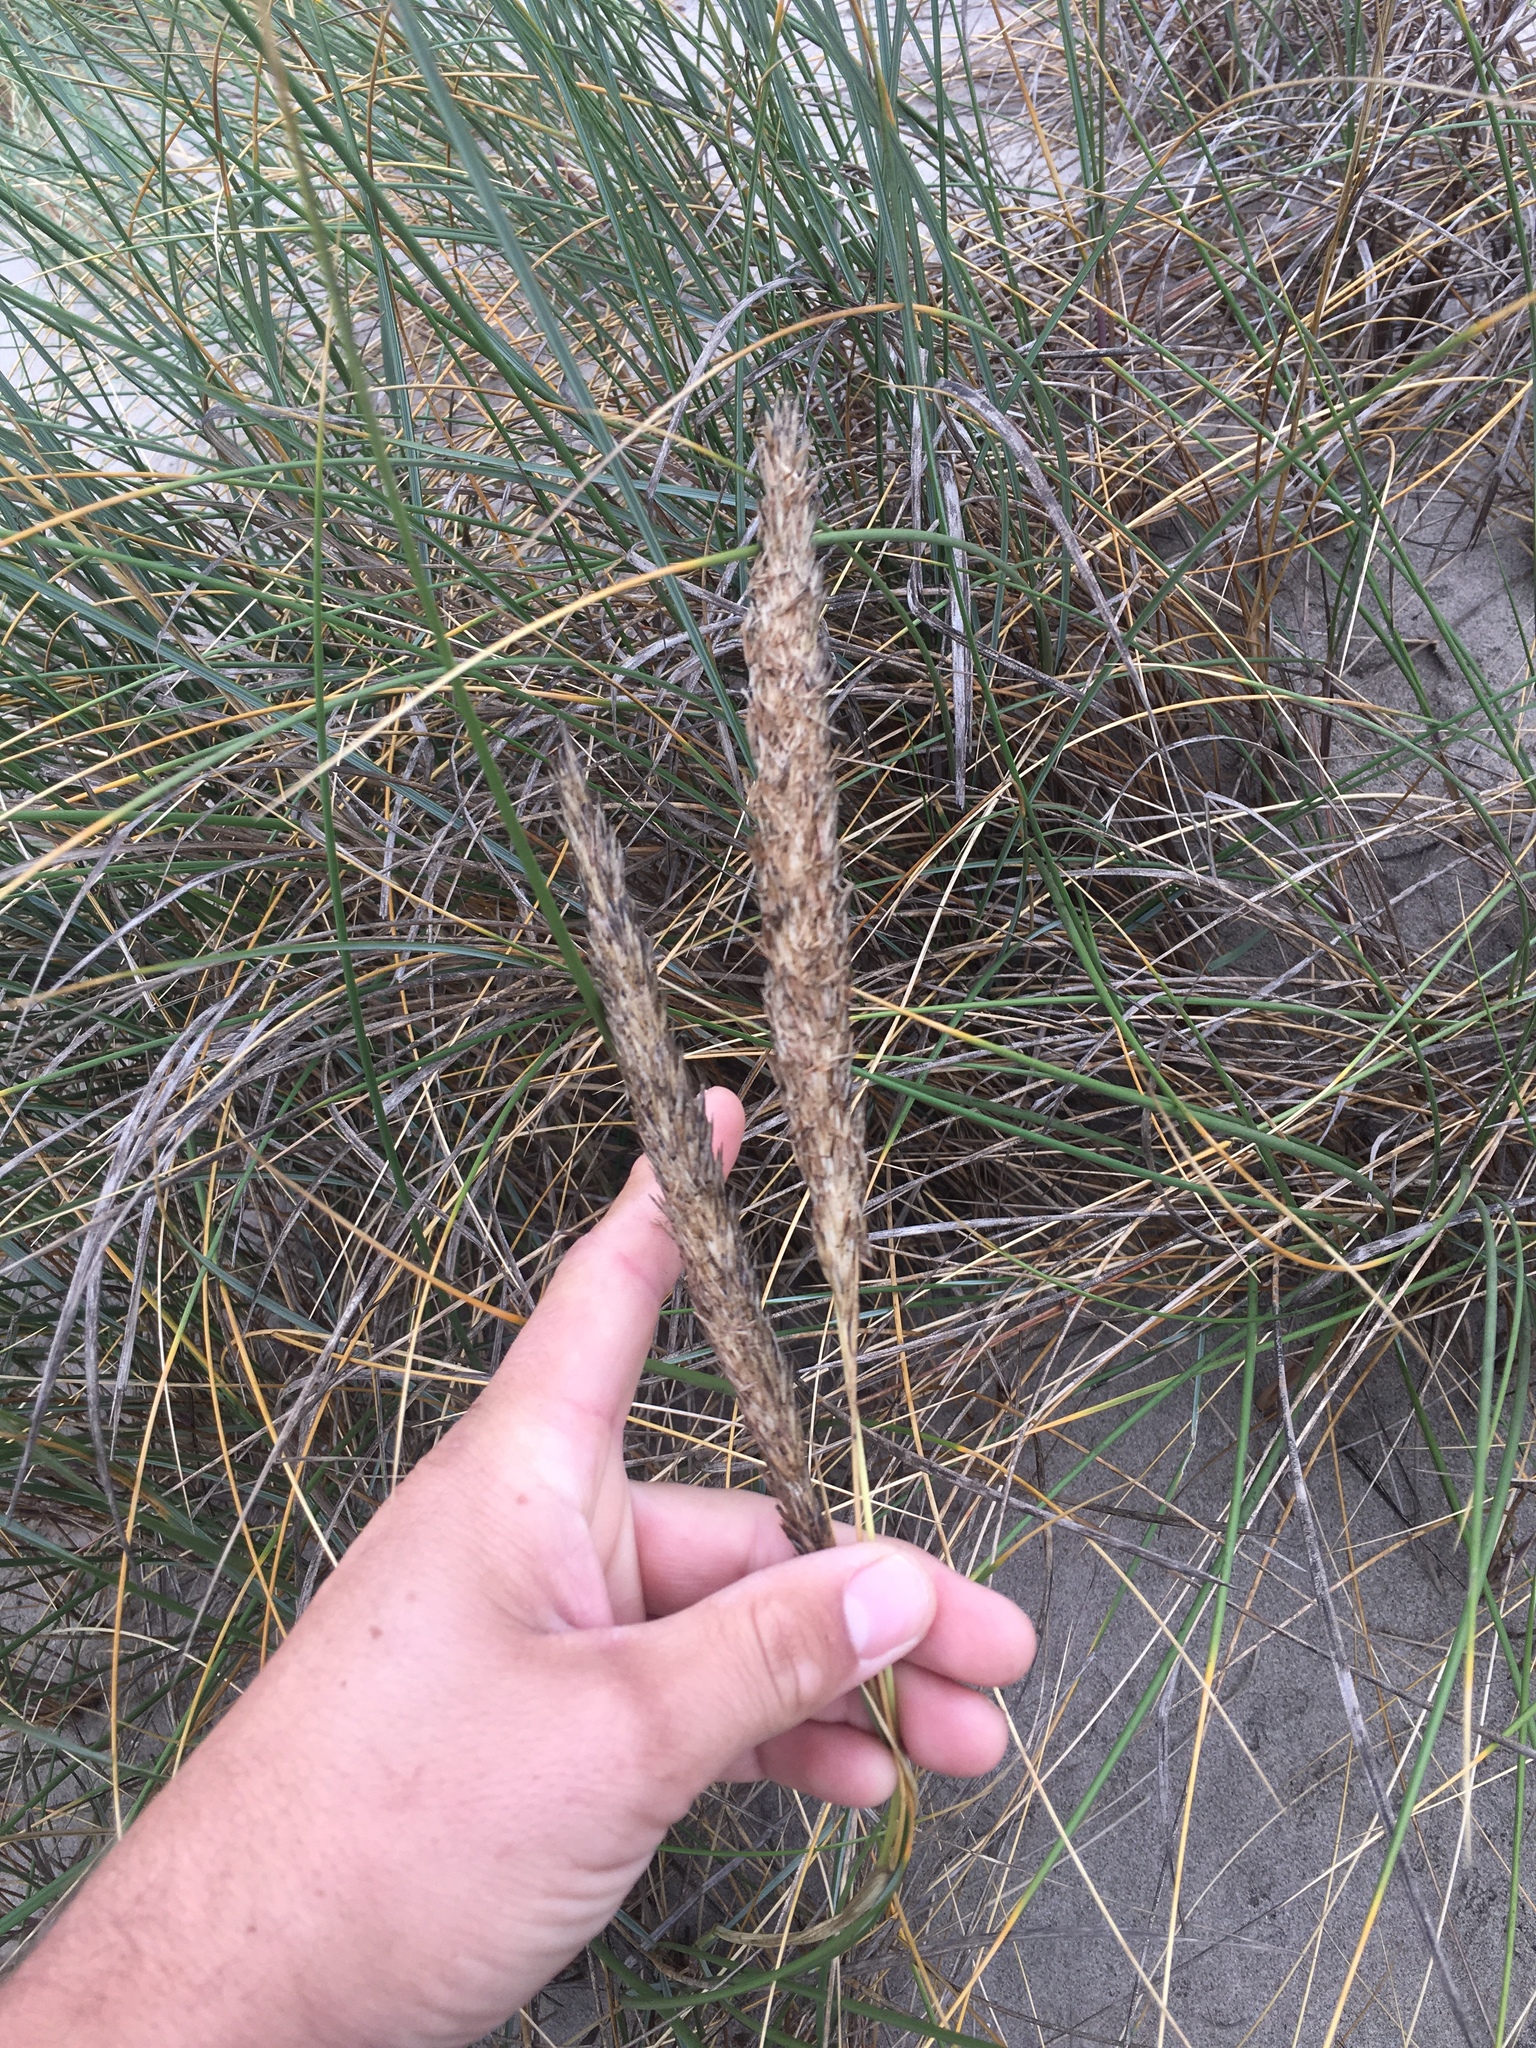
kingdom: Plantae
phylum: Tracheophyta
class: Liliopsida
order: Poales
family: Poaceae
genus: Calamagrostis
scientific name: Calamagrostis arenaria
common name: European beachgrass
